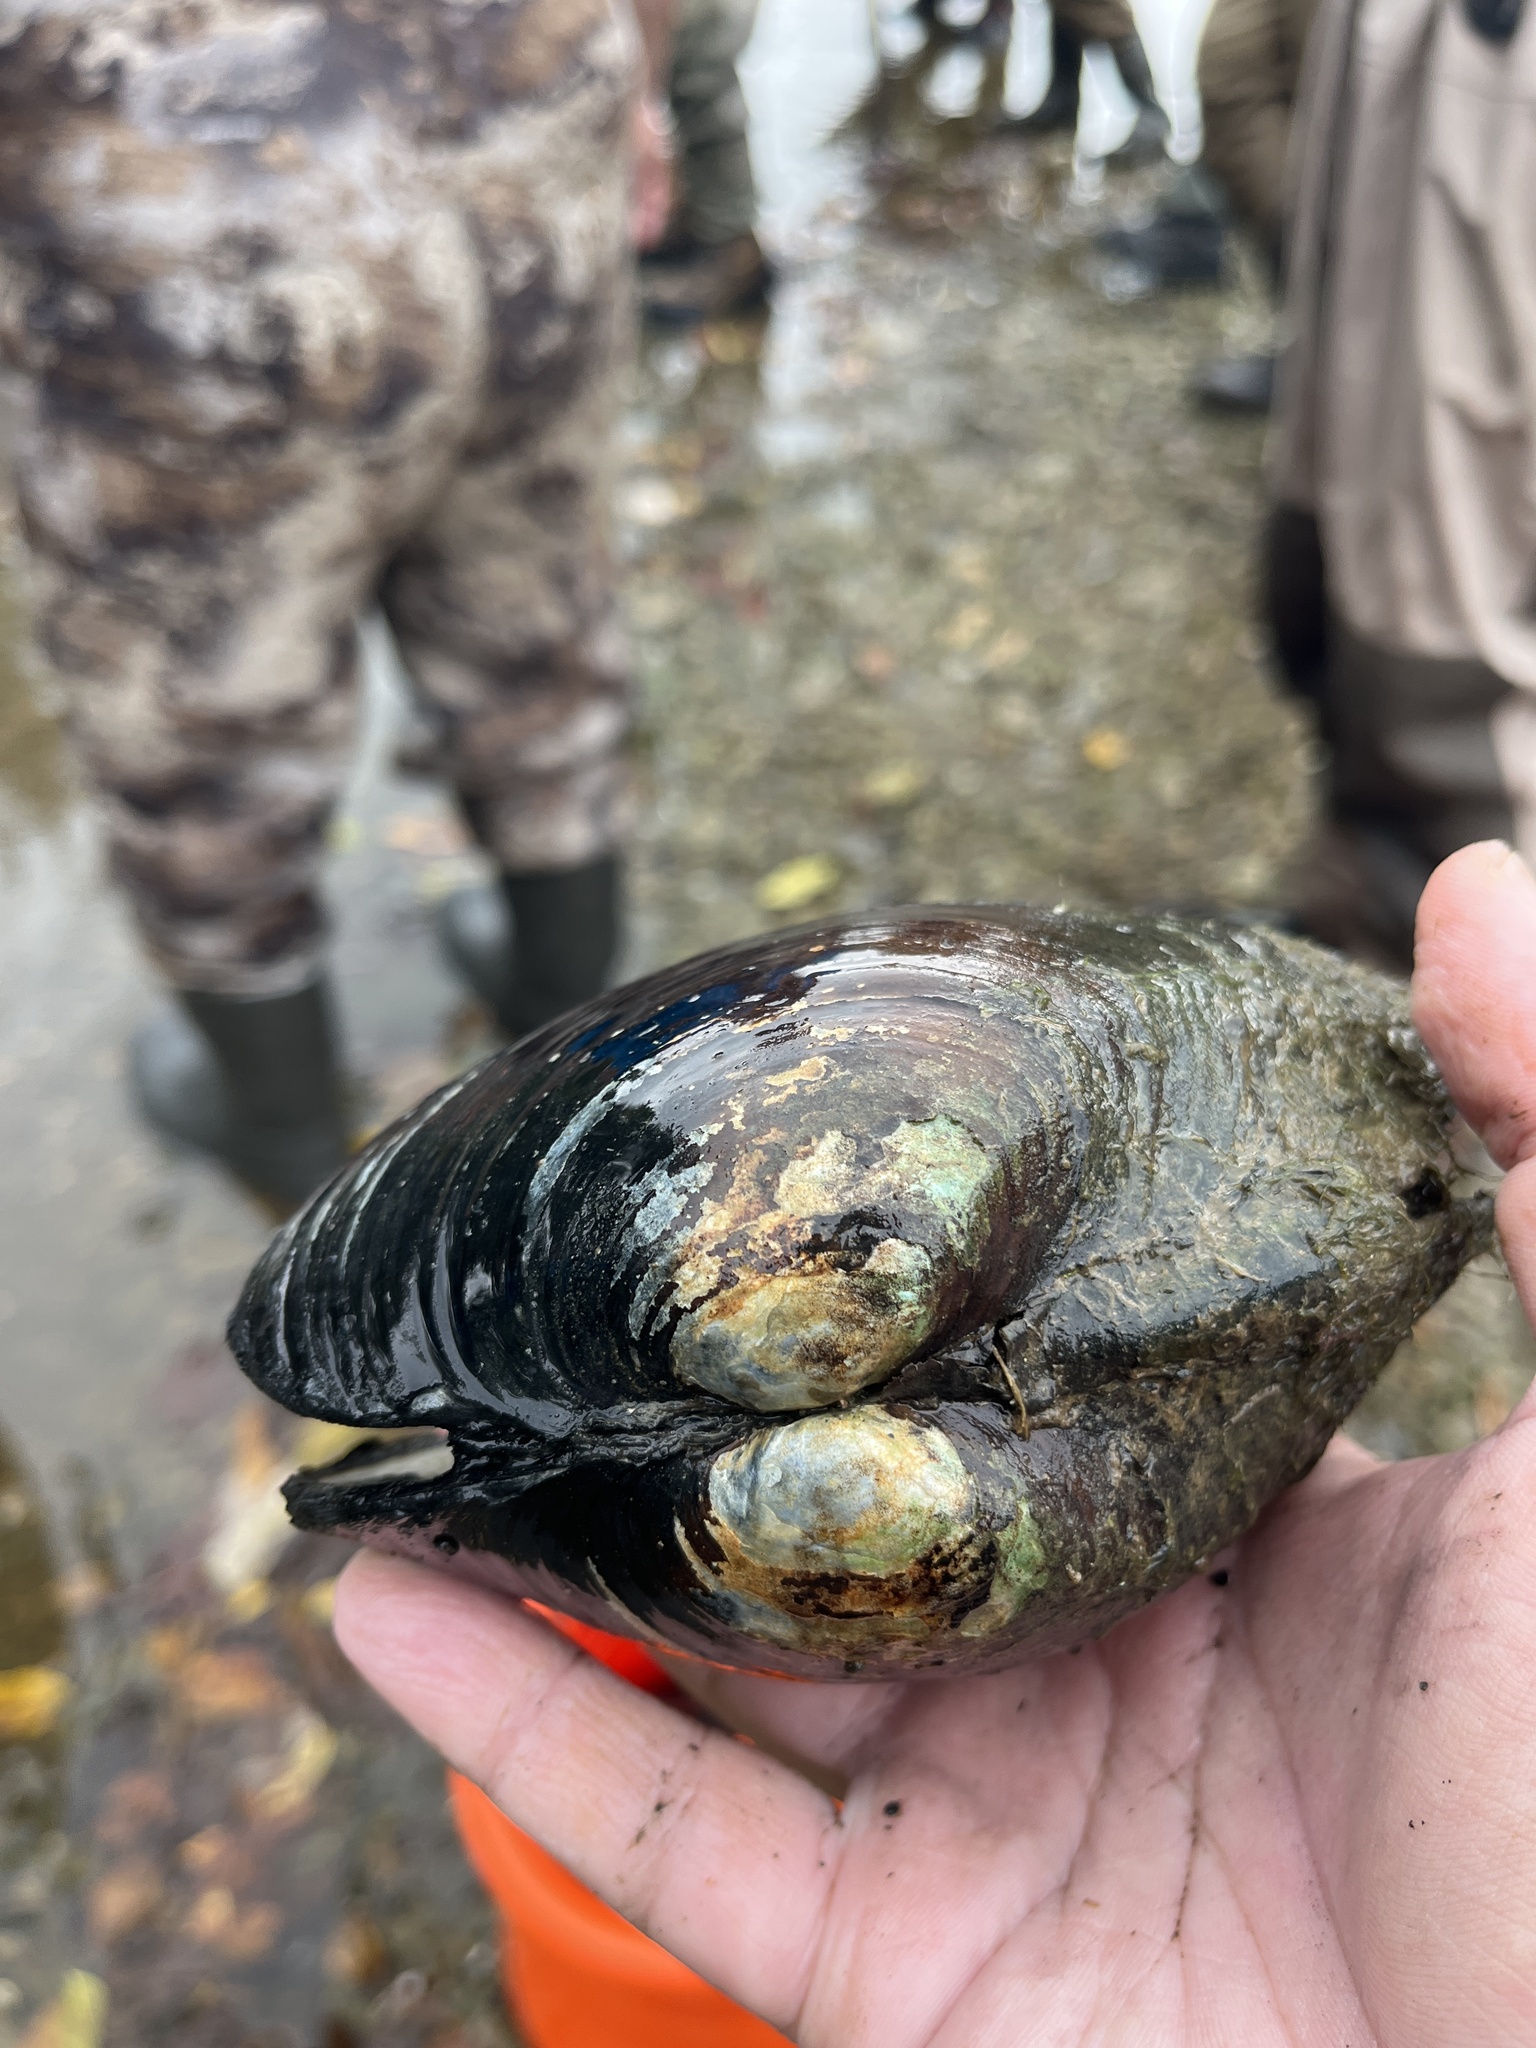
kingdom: Animalia
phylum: Mollusca
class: Bivalvia
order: Unionida
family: Unionidae
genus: Lampsilis
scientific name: Lampsilis cardium
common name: Plain pocketbook
